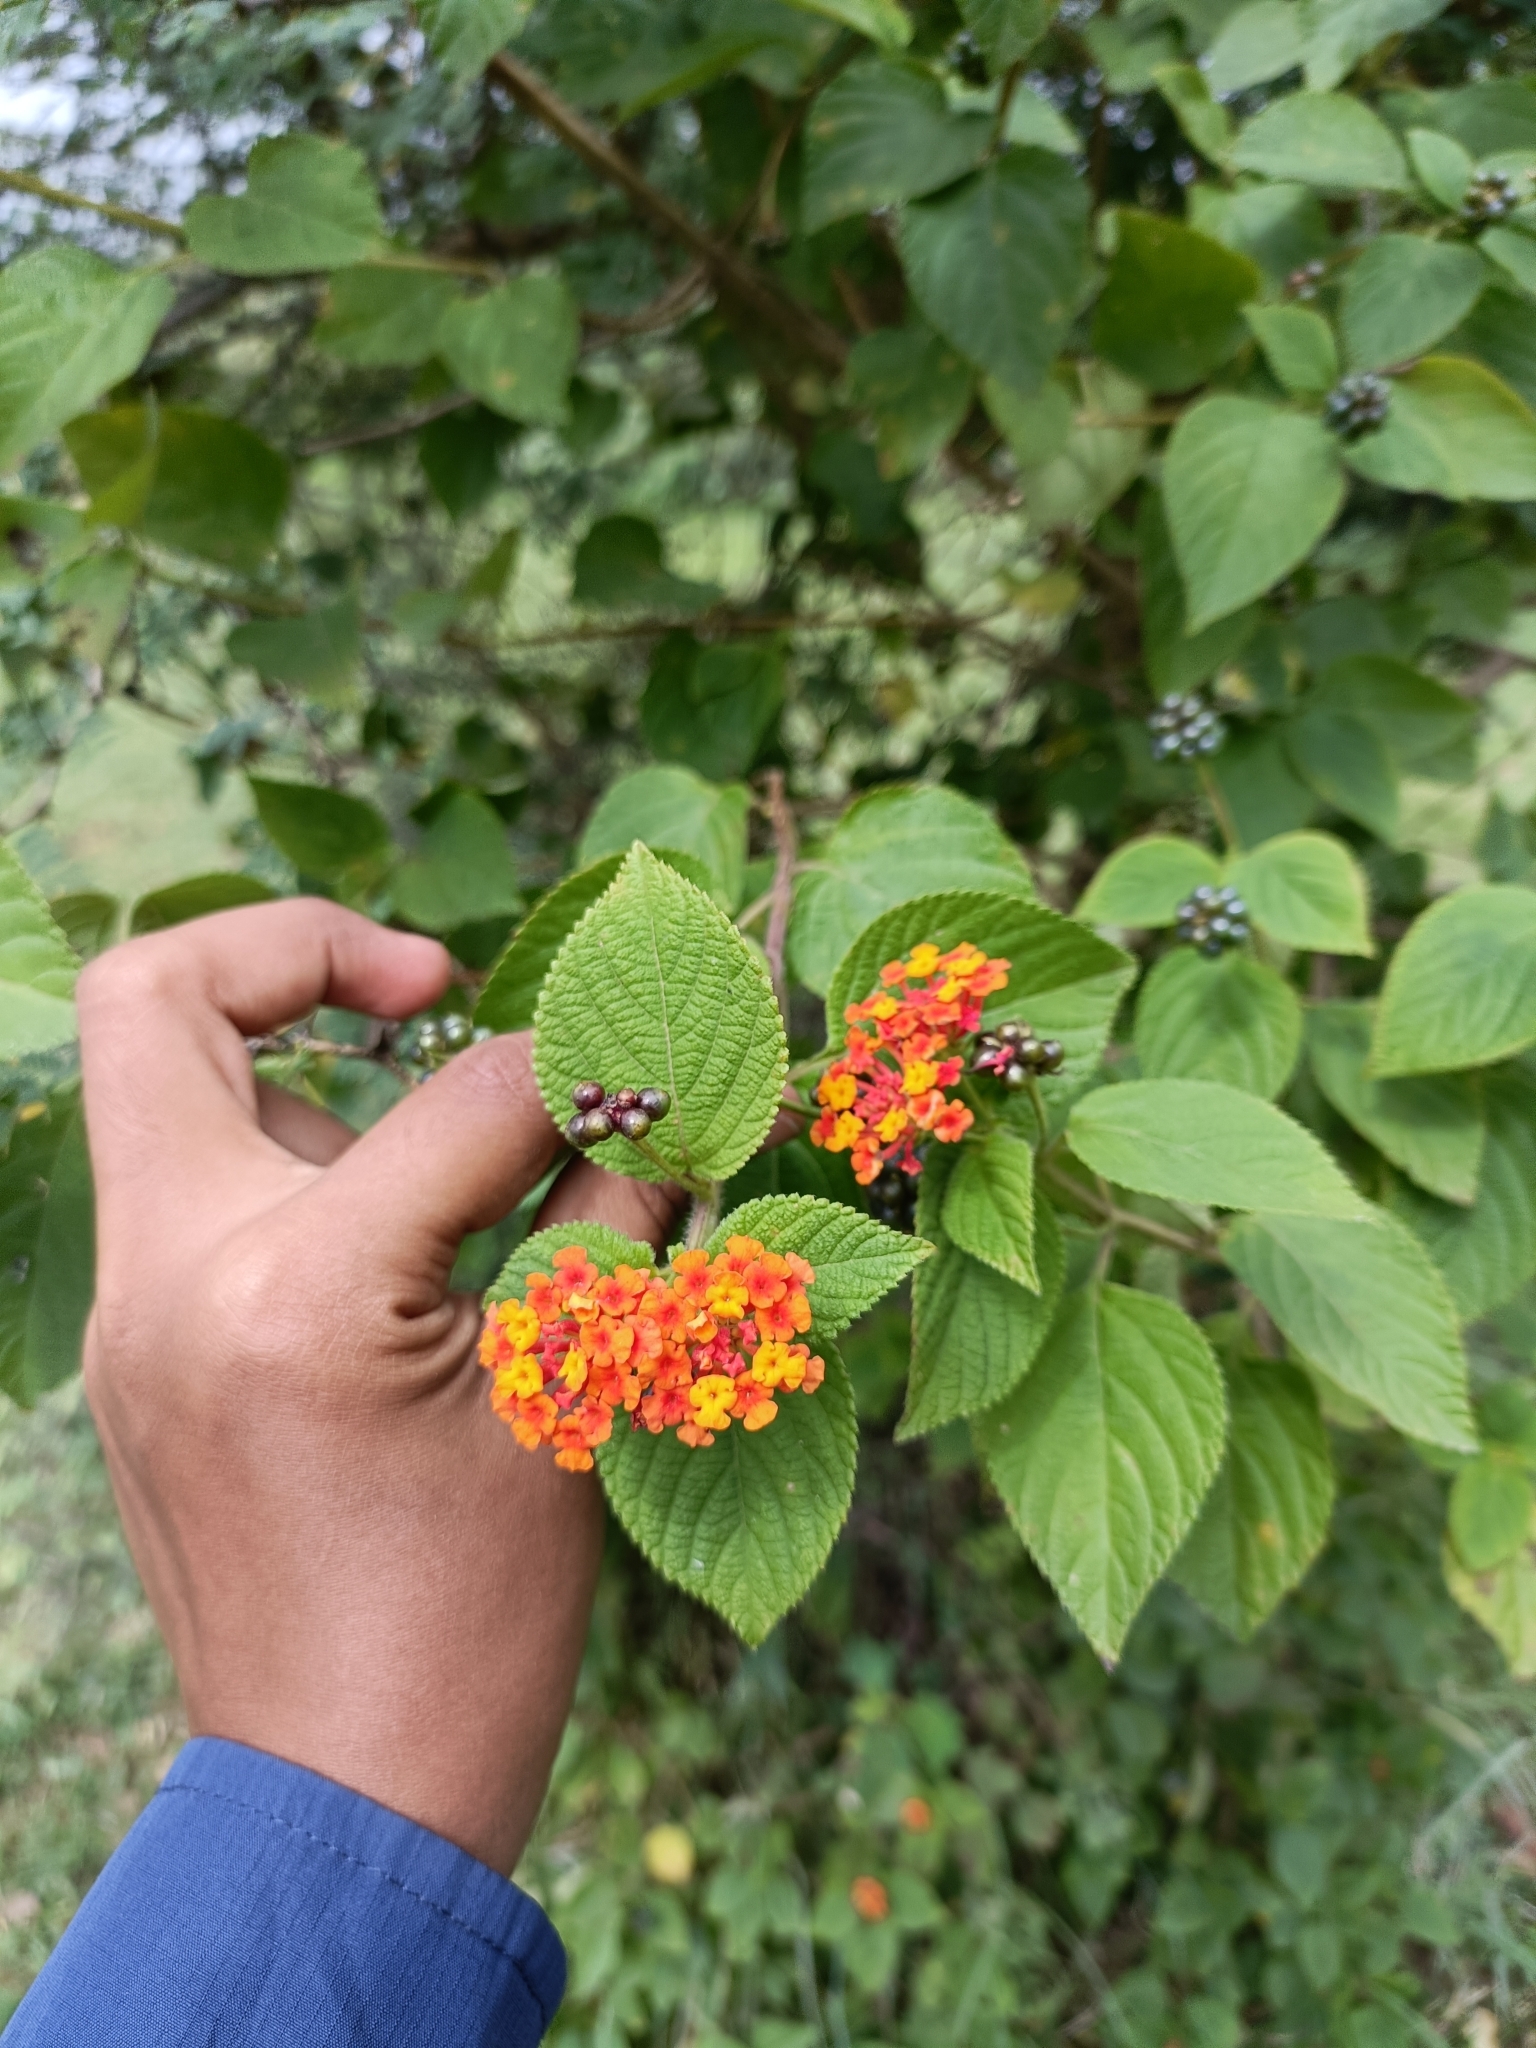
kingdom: Plantae
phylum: Tracheophyta
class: Magnoliopsida
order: Lamiales
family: Verbenaceae
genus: Lantana
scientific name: Lantana camara
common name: Lantana
